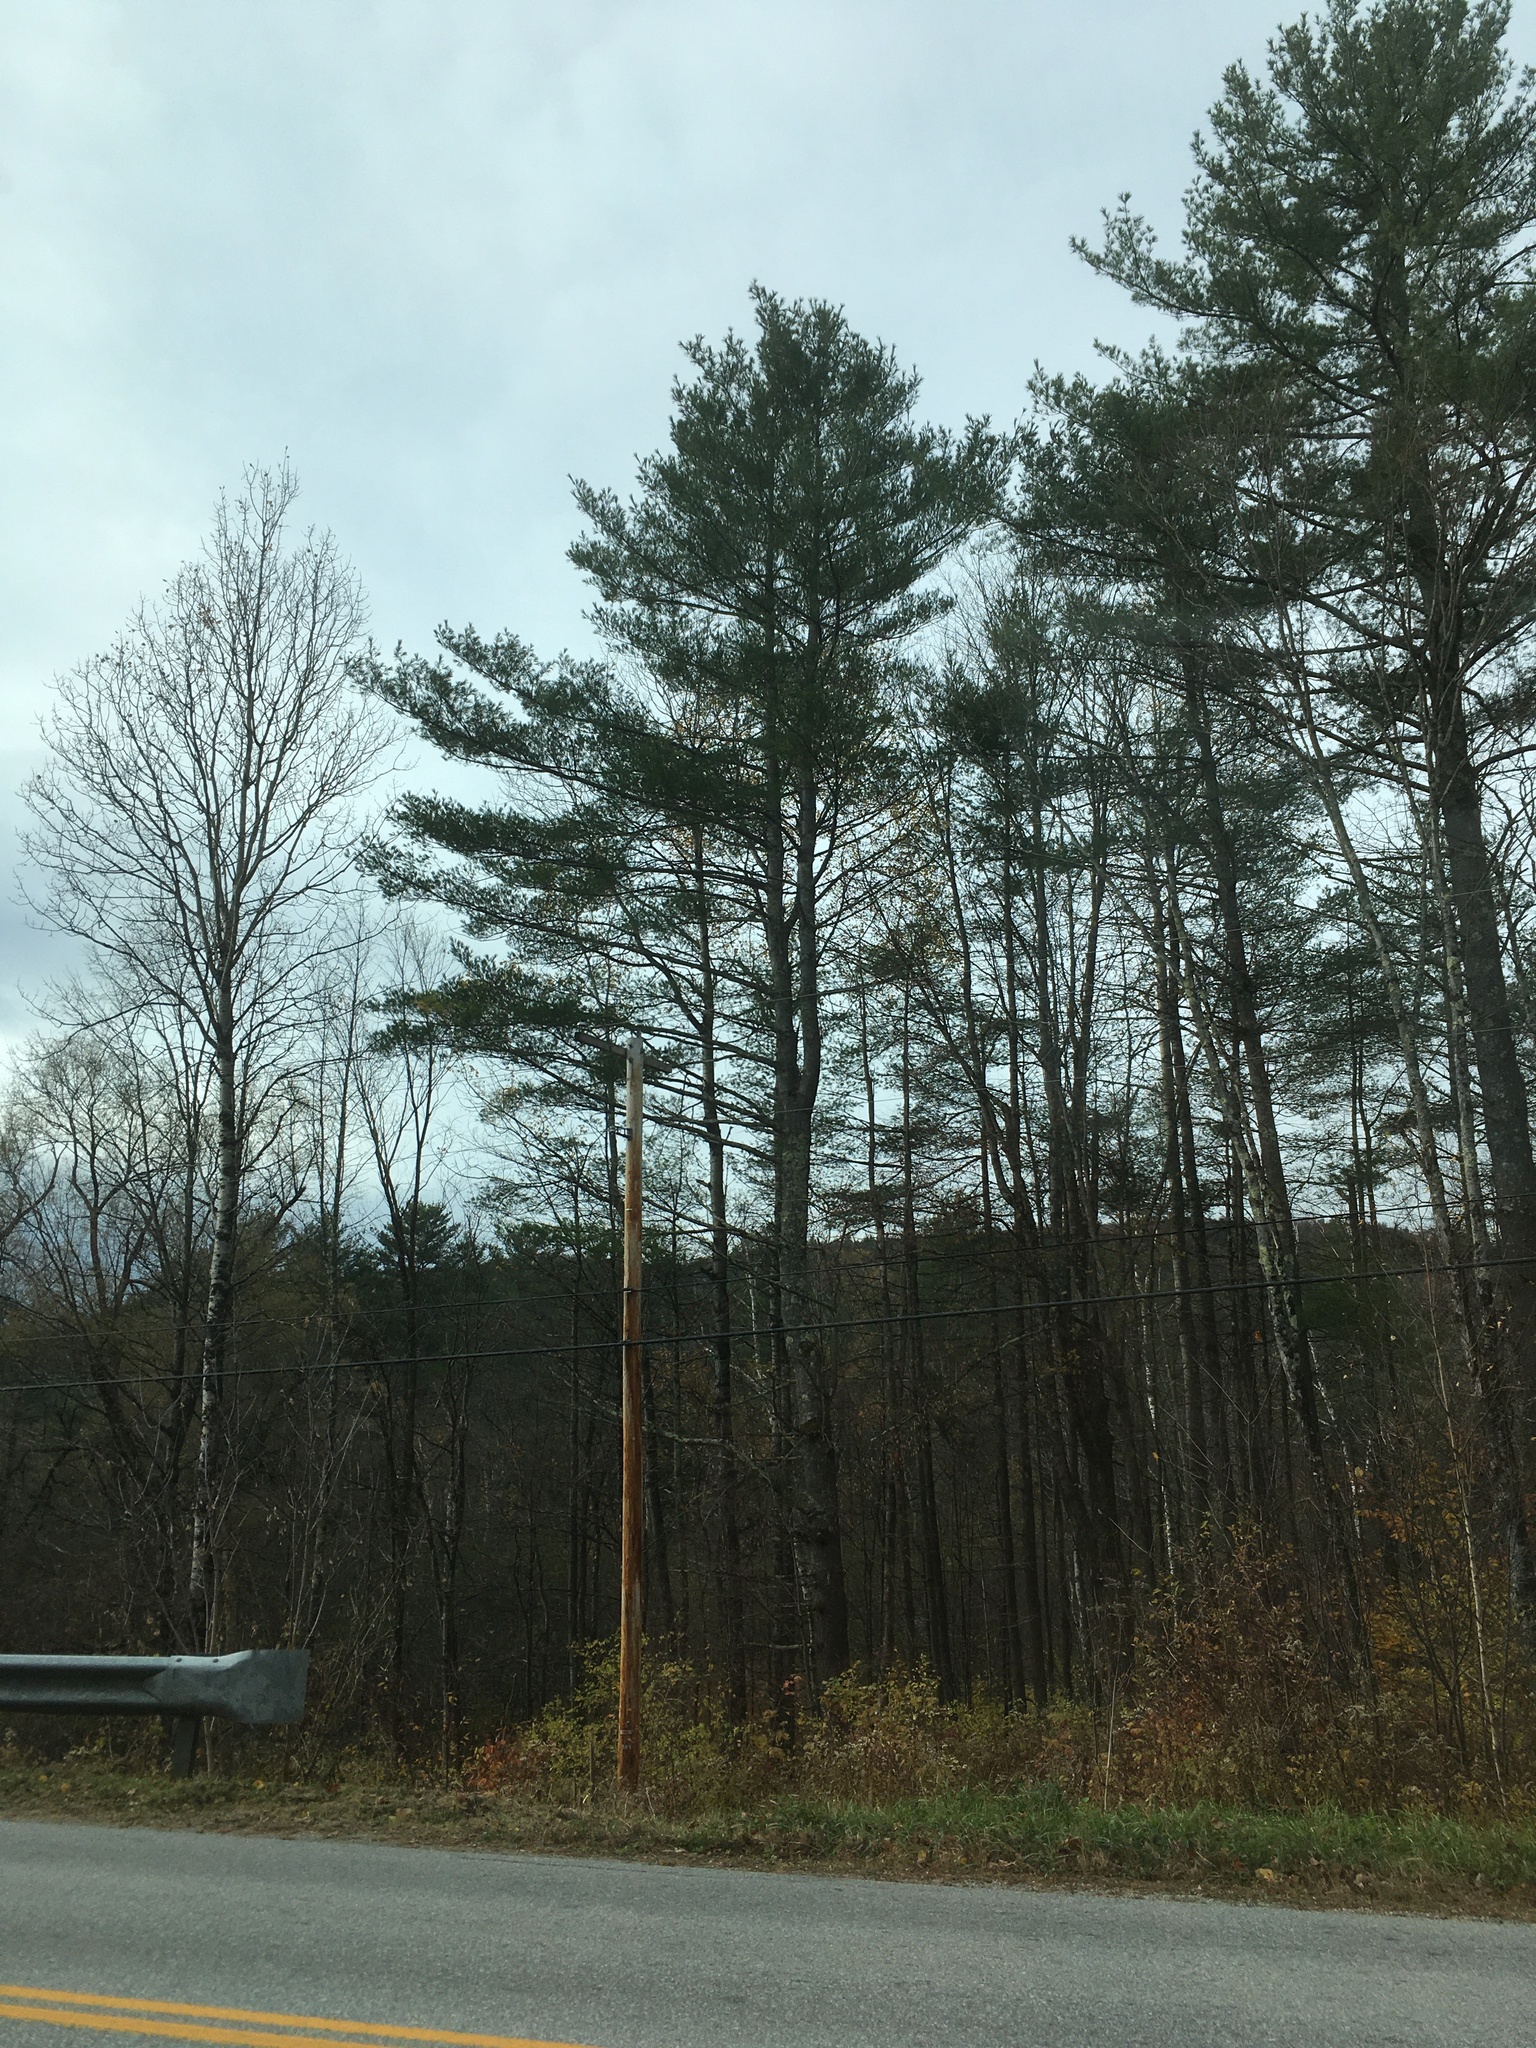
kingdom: Plantae
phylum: Tracheophyta
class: Pinopsida
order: Pinales
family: Pinaceae
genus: Pinus
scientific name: Pinus strobus
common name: Weymouth pine
